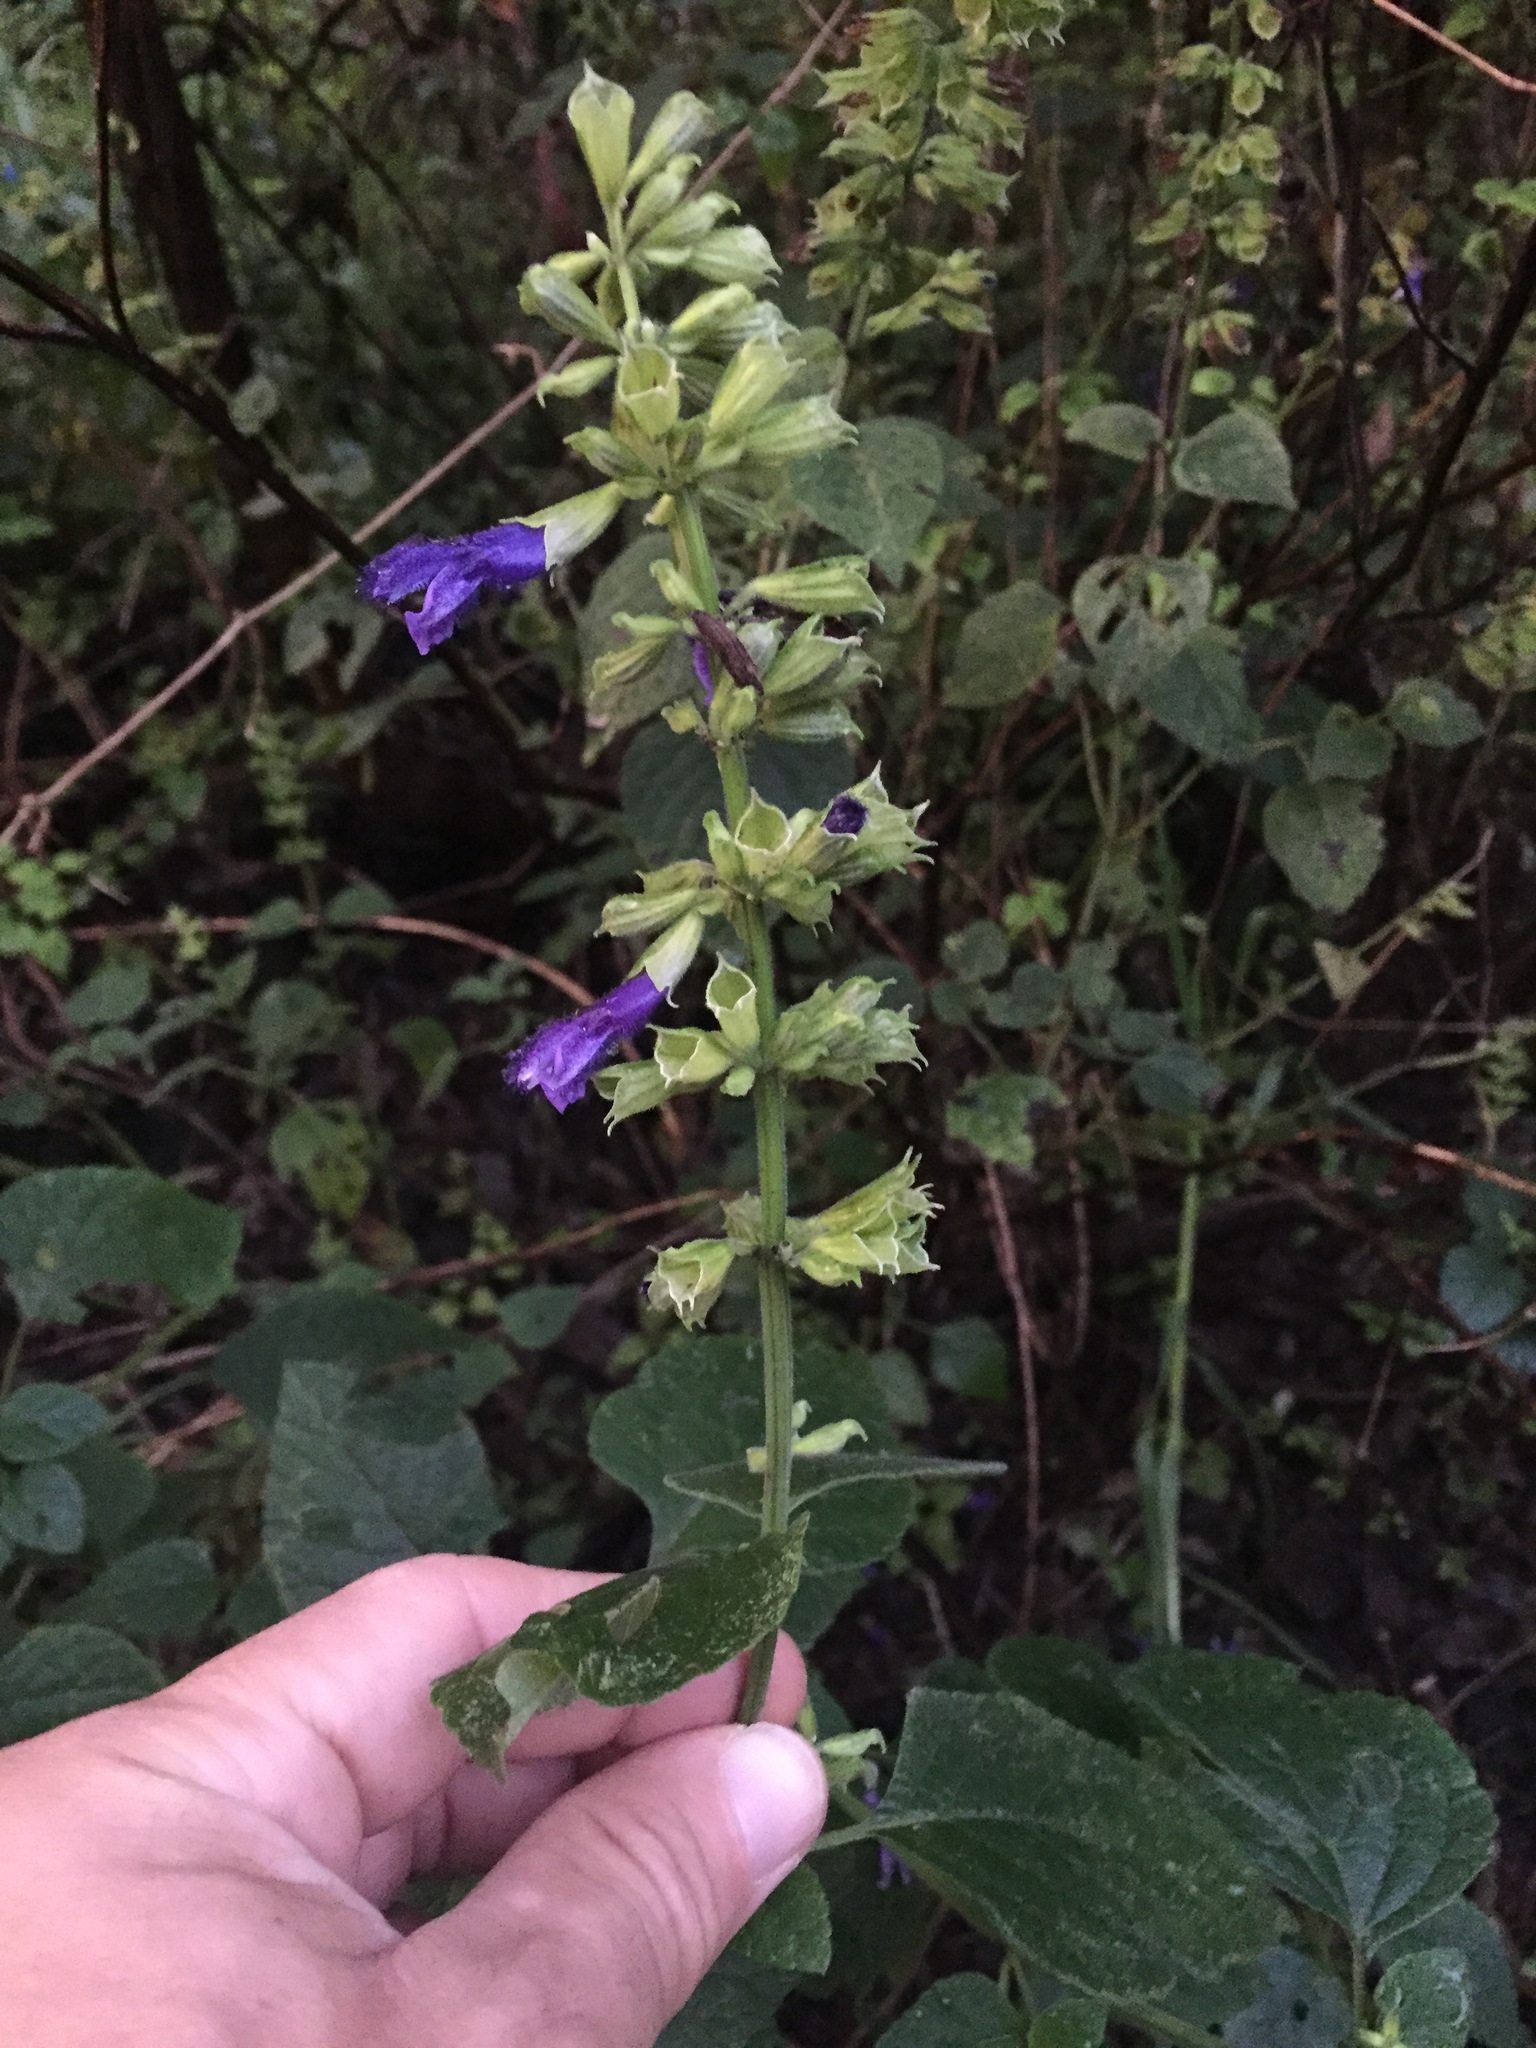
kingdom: Plantae
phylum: Tracheophyta
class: Magnoliopsida
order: Lamiales
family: Lamiaceae
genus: Salvia
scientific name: Salvia mexicana
